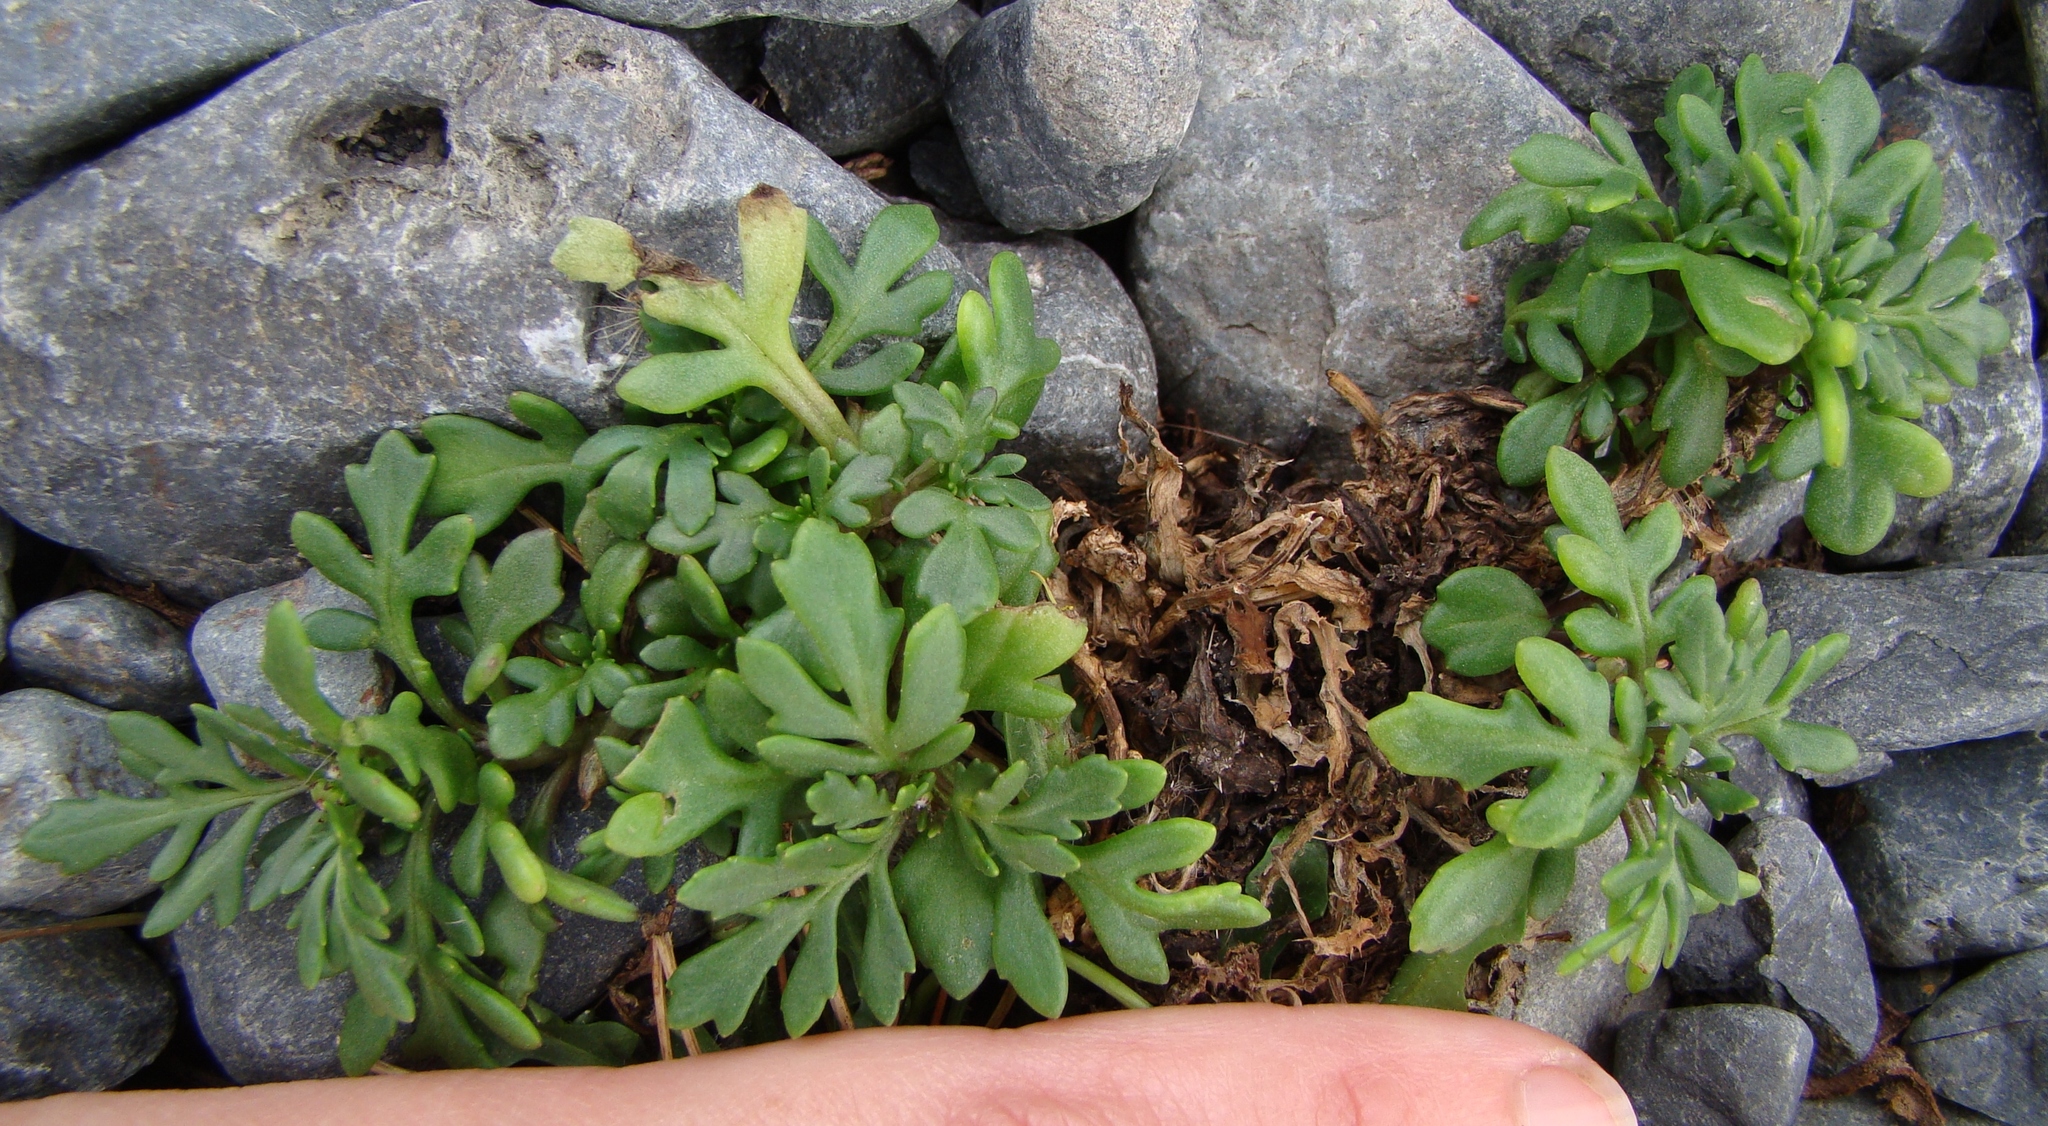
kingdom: Plantae
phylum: Tracheophyta
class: Magnoliopsida
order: Asterales
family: Asteraceae
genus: Senecio
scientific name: Senecio lautus
